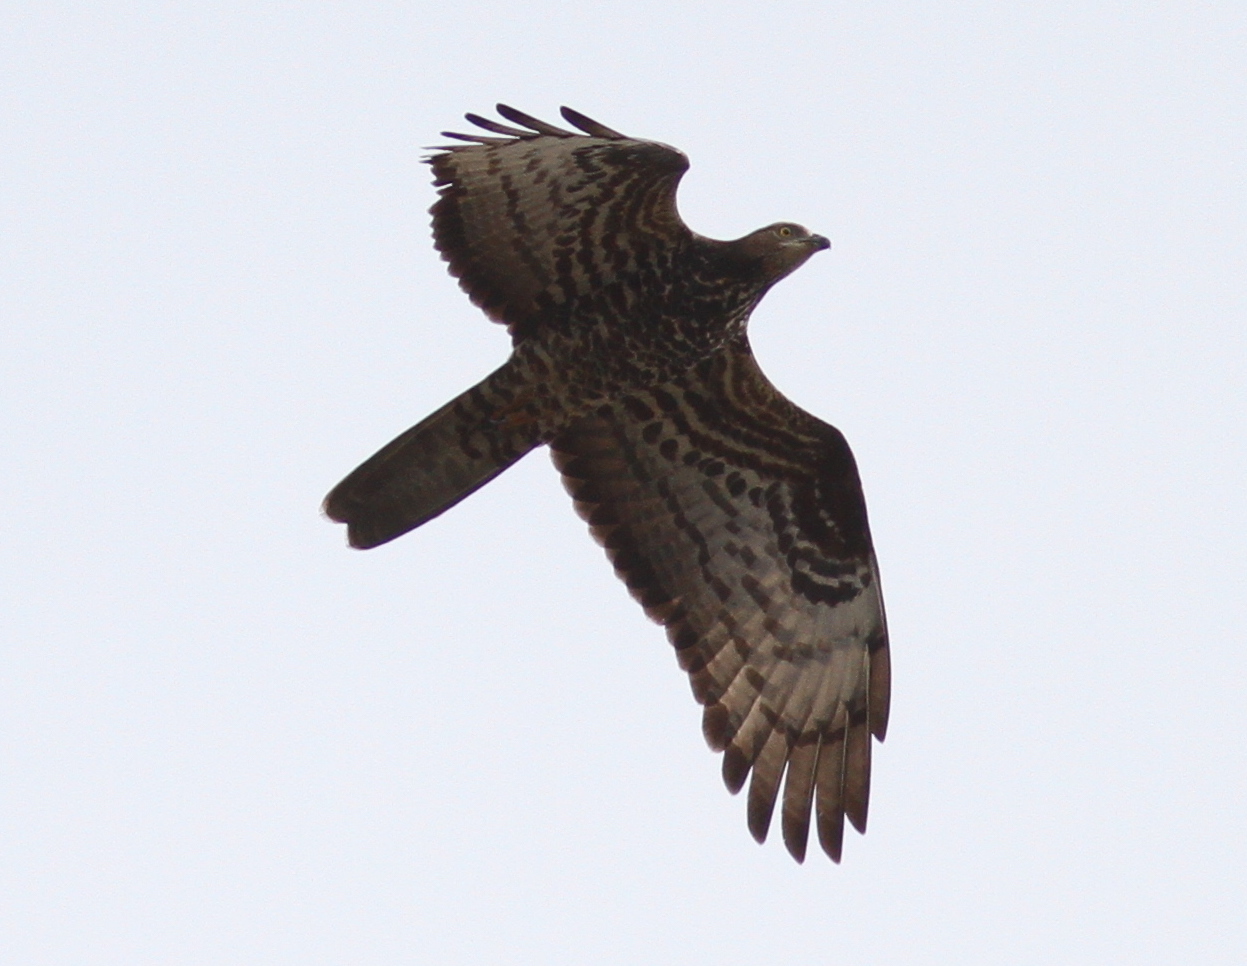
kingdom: Animalia
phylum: Chordata
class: Aves
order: Accipitriformes
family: Accipitridae
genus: Pernis
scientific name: Pernis apivorus
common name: European honey buzzard
